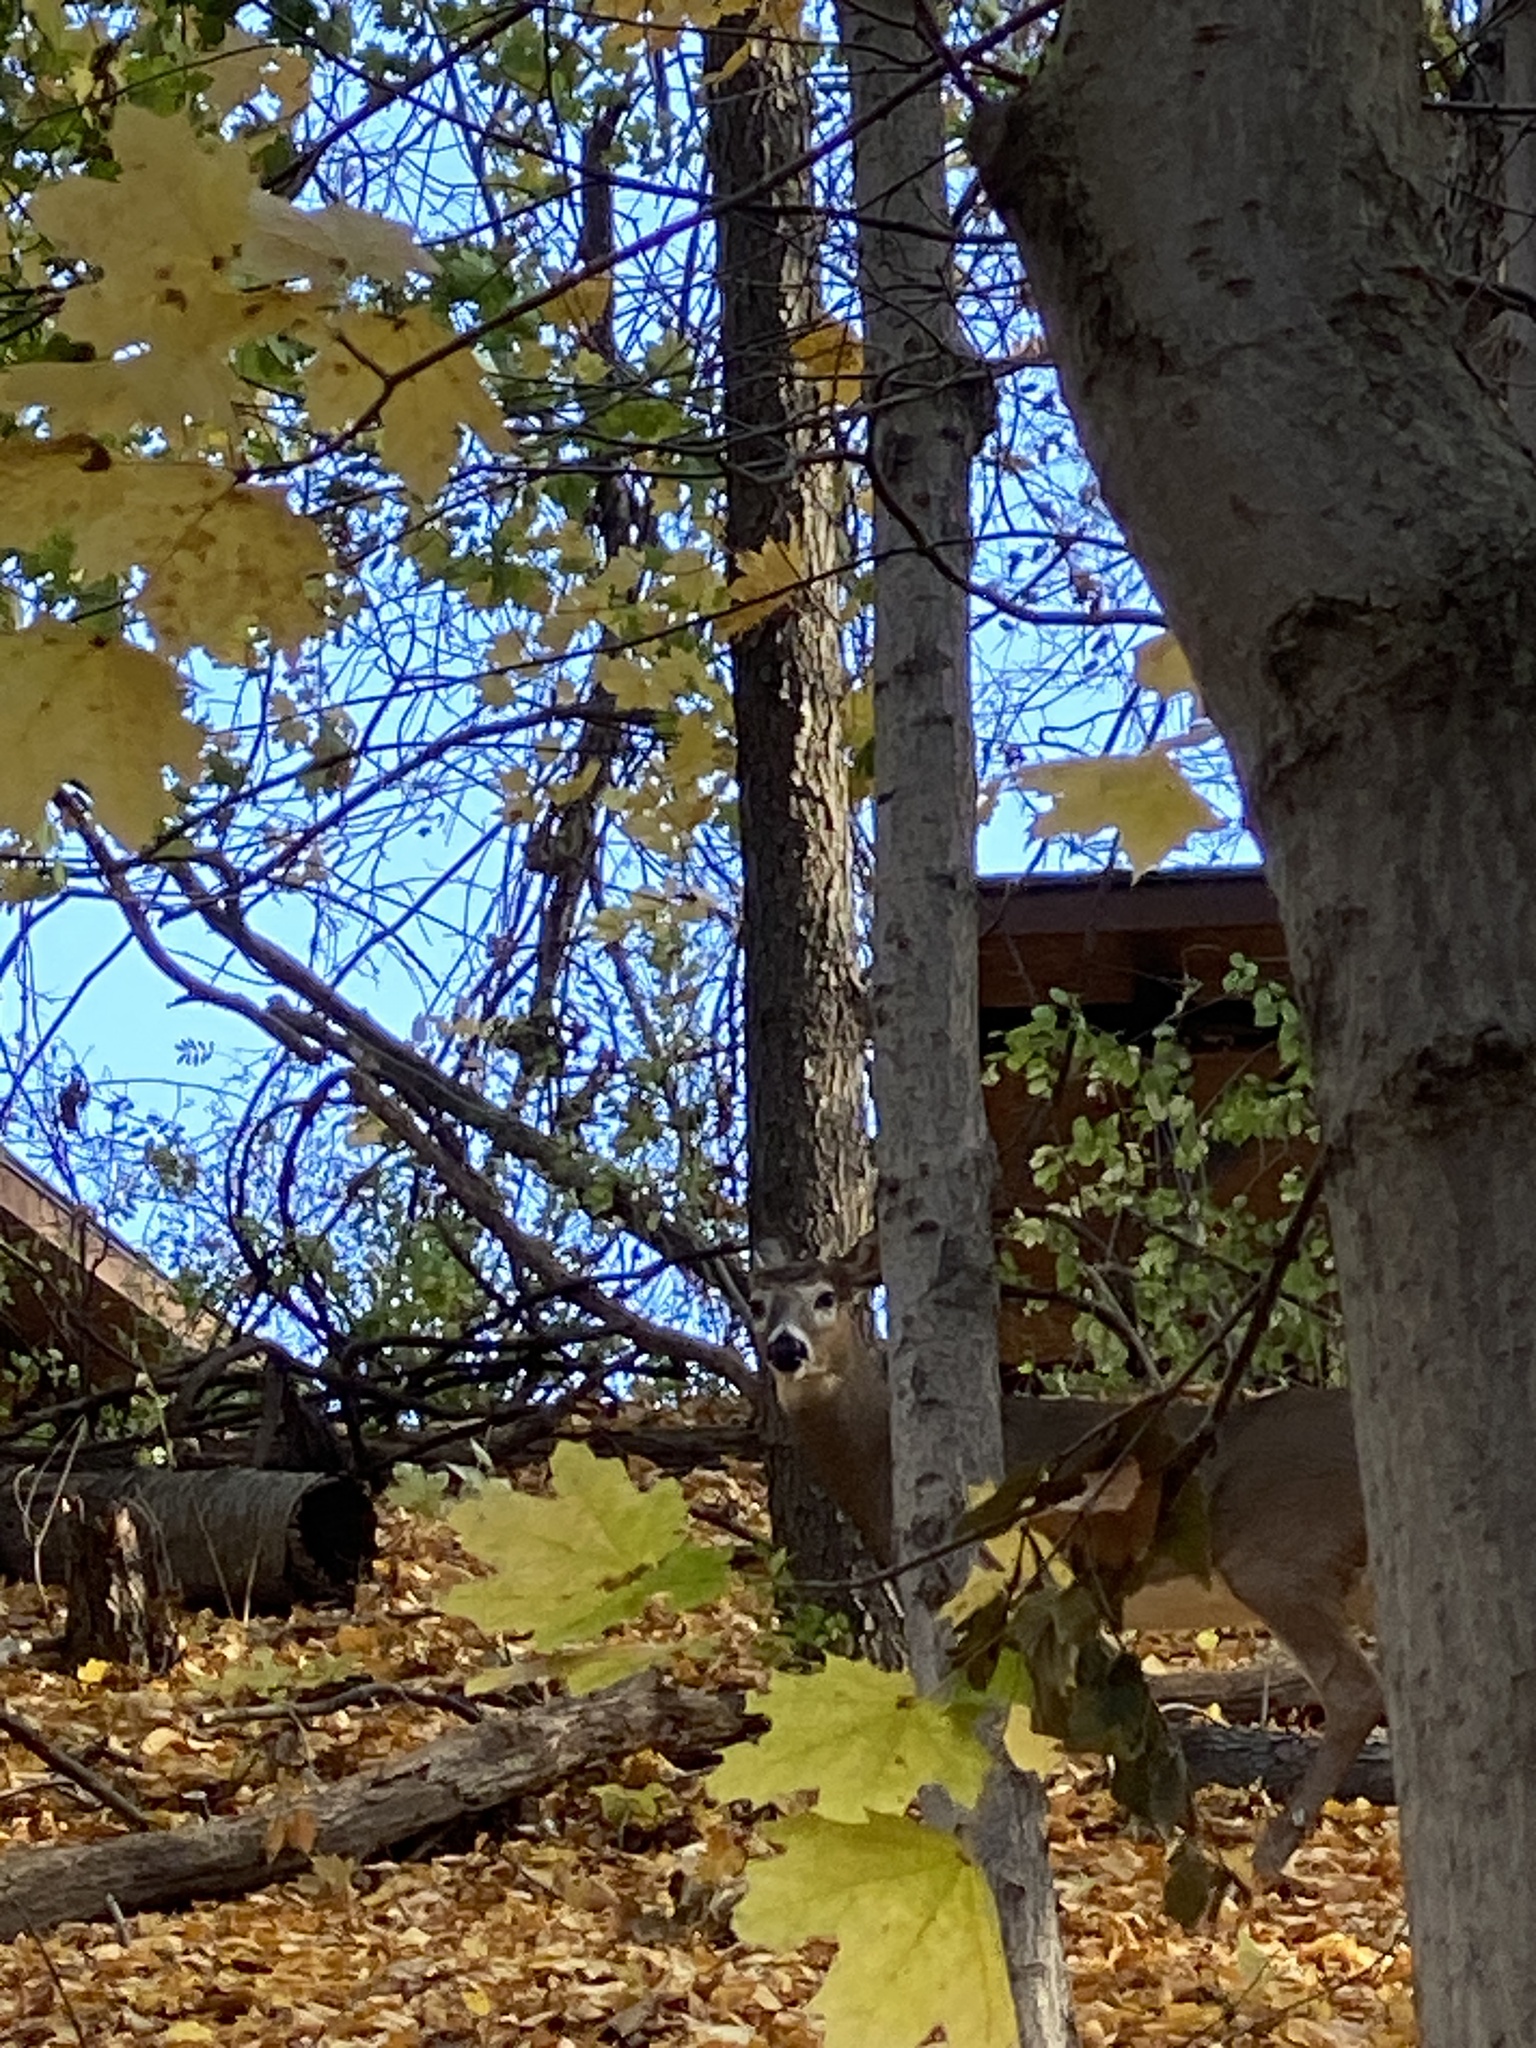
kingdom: Animalia
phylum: Chordata
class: Mammalia
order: Artiodactyla
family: Cervidae
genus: Odocoileus
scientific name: Odocoileus virginianus
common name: White-tailed deer
